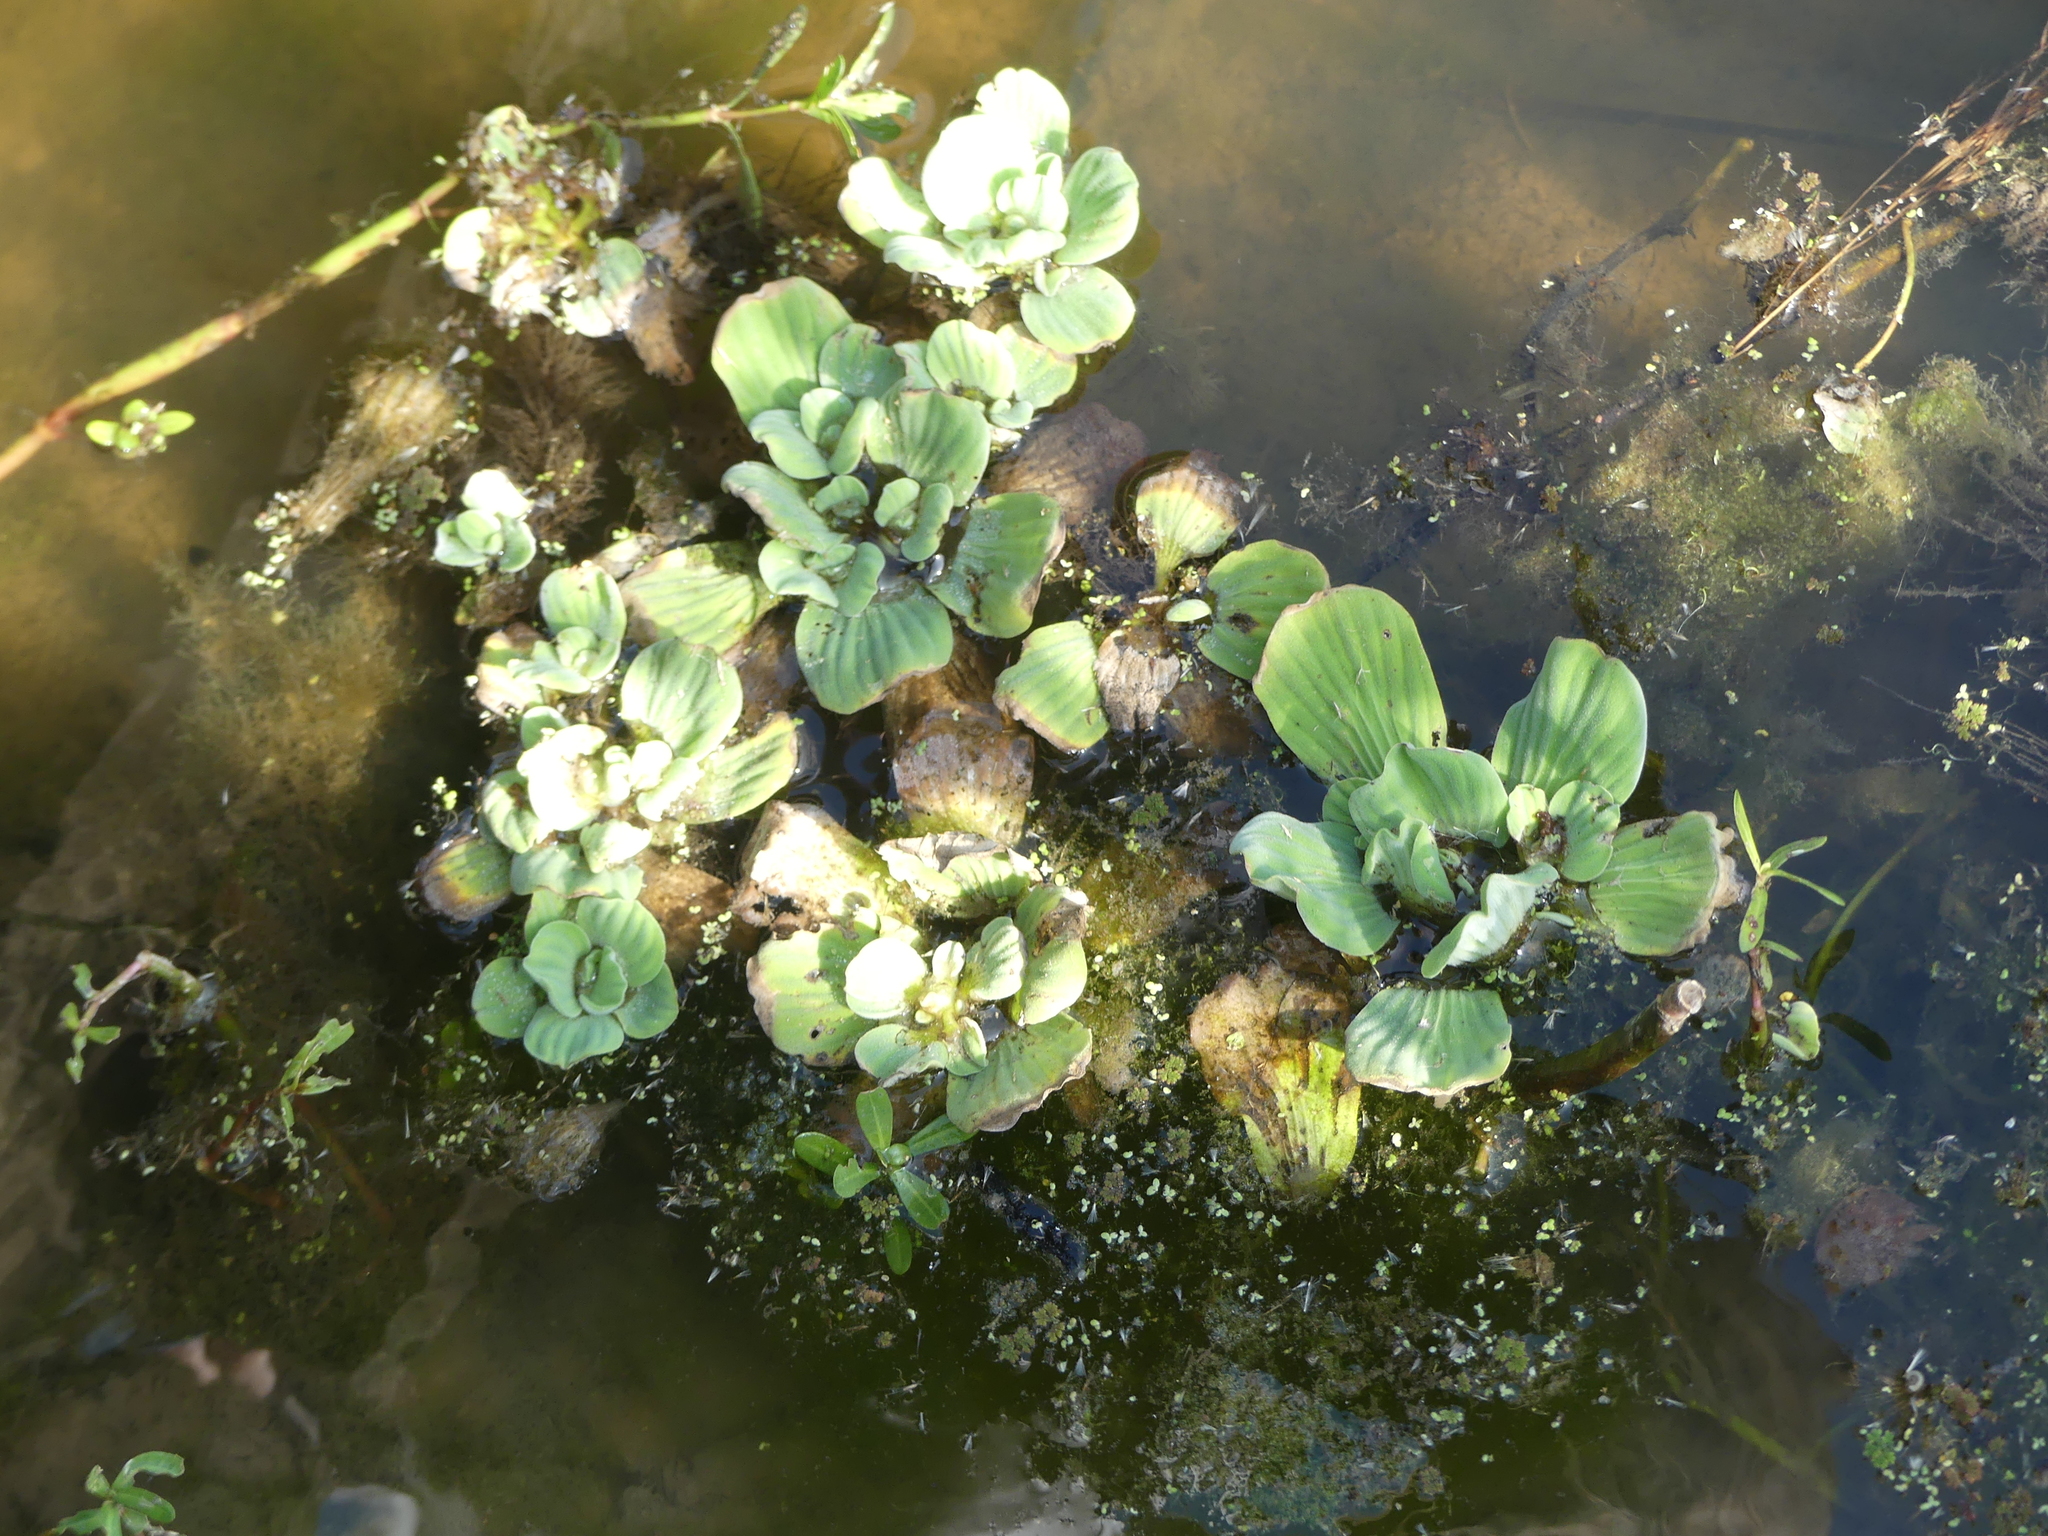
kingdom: Plantae
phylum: Tracheophyta
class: Liliopsida
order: Alismatales
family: Araceae
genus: Pistia
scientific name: Pistia stratiotes
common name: Water lettuce
